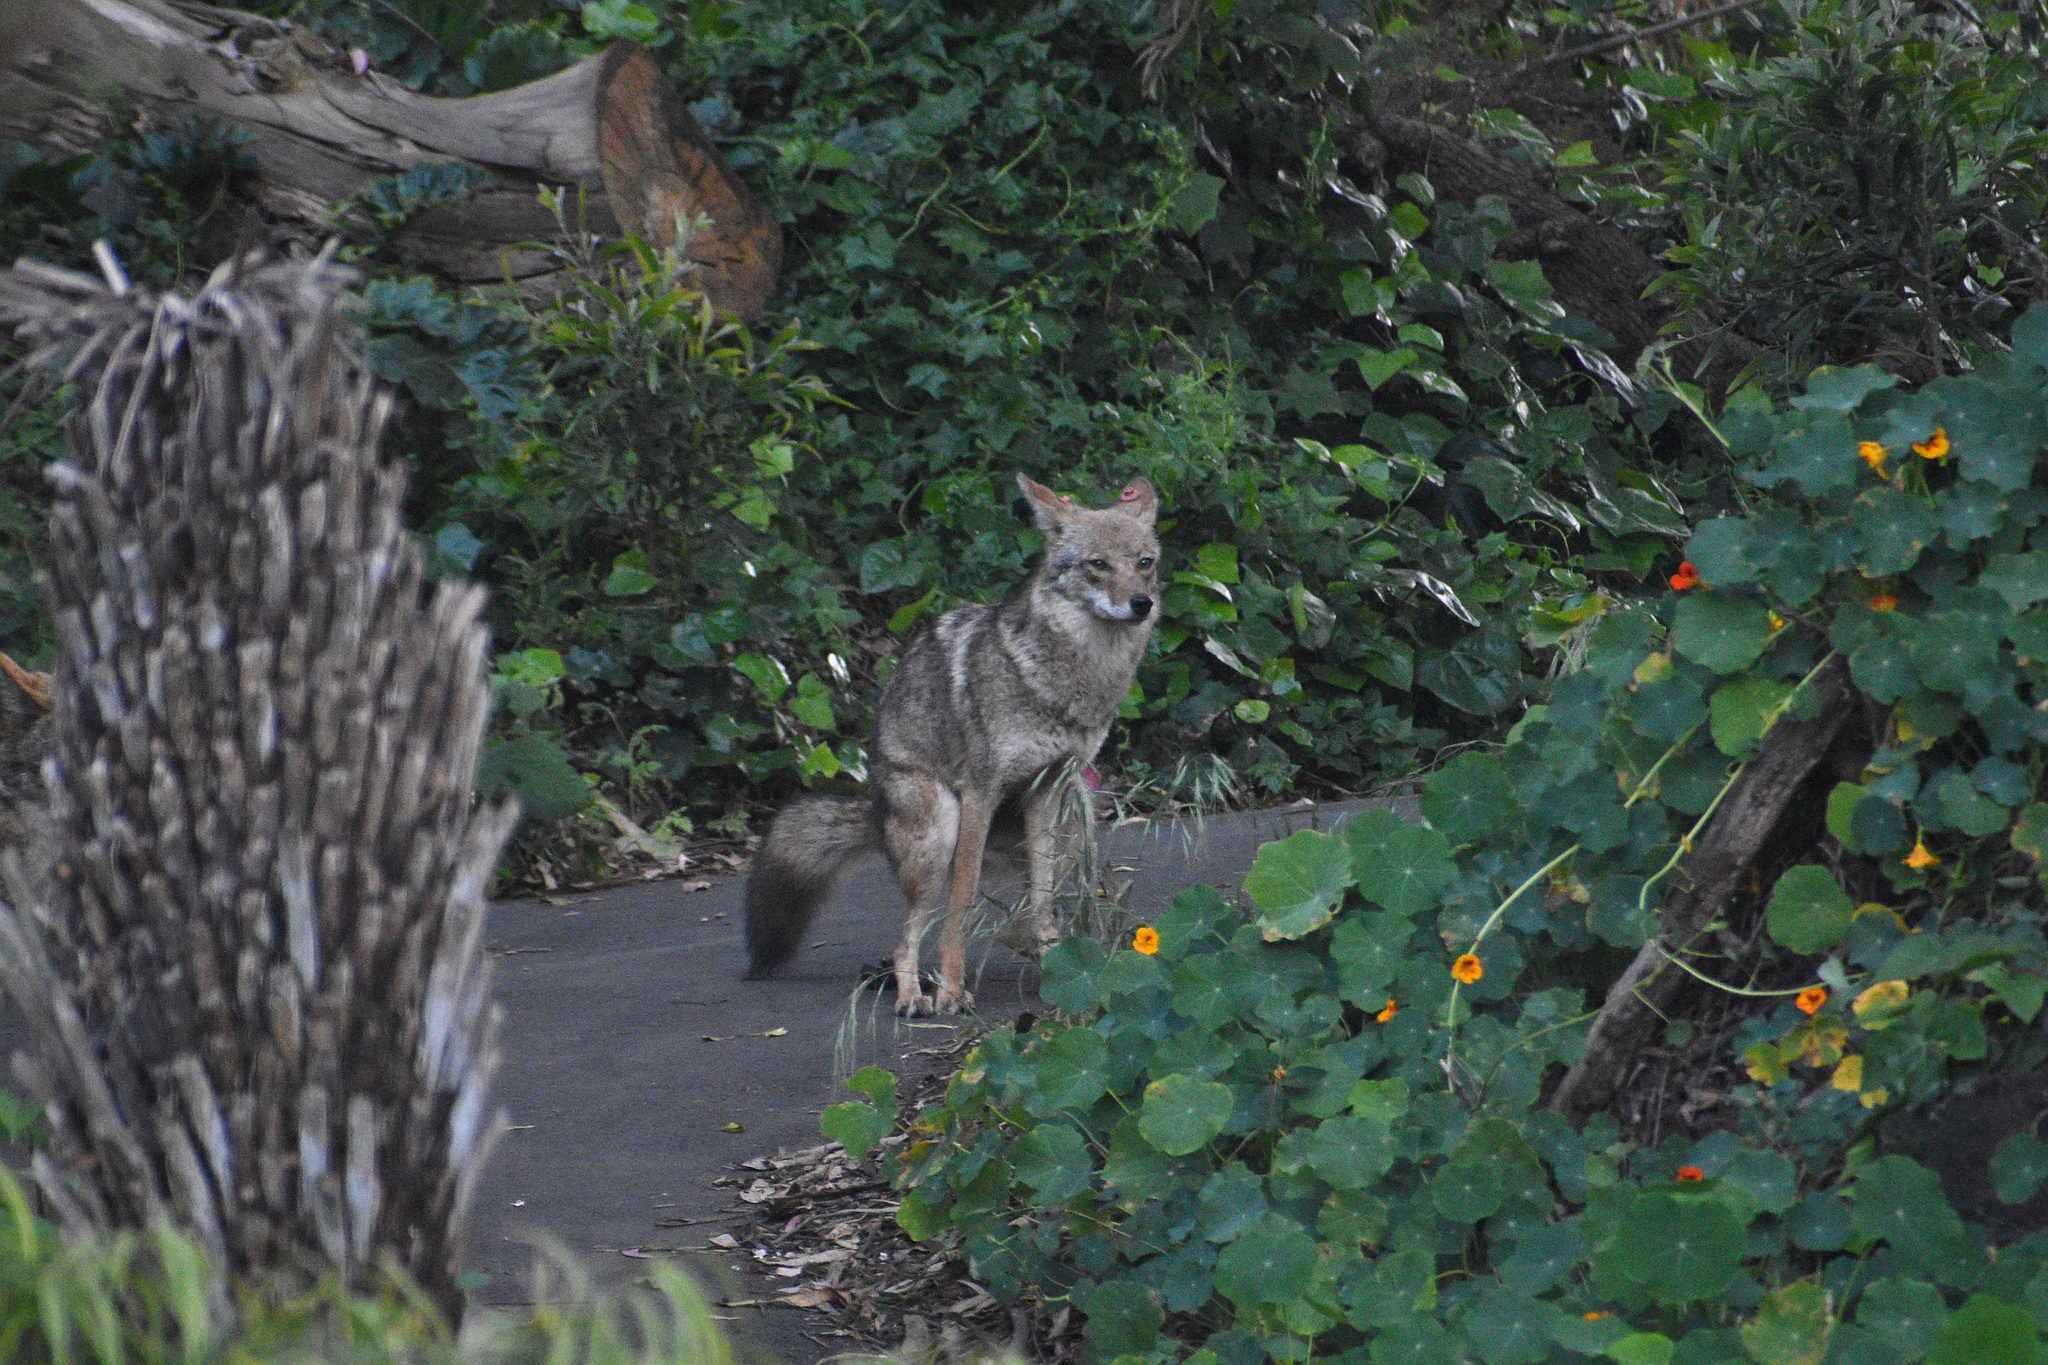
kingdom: Animalia
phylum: Chordata
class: Mammalia
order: Carnivora
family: Canidae
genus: Canis
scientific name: Canis latrans
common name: Coyote
